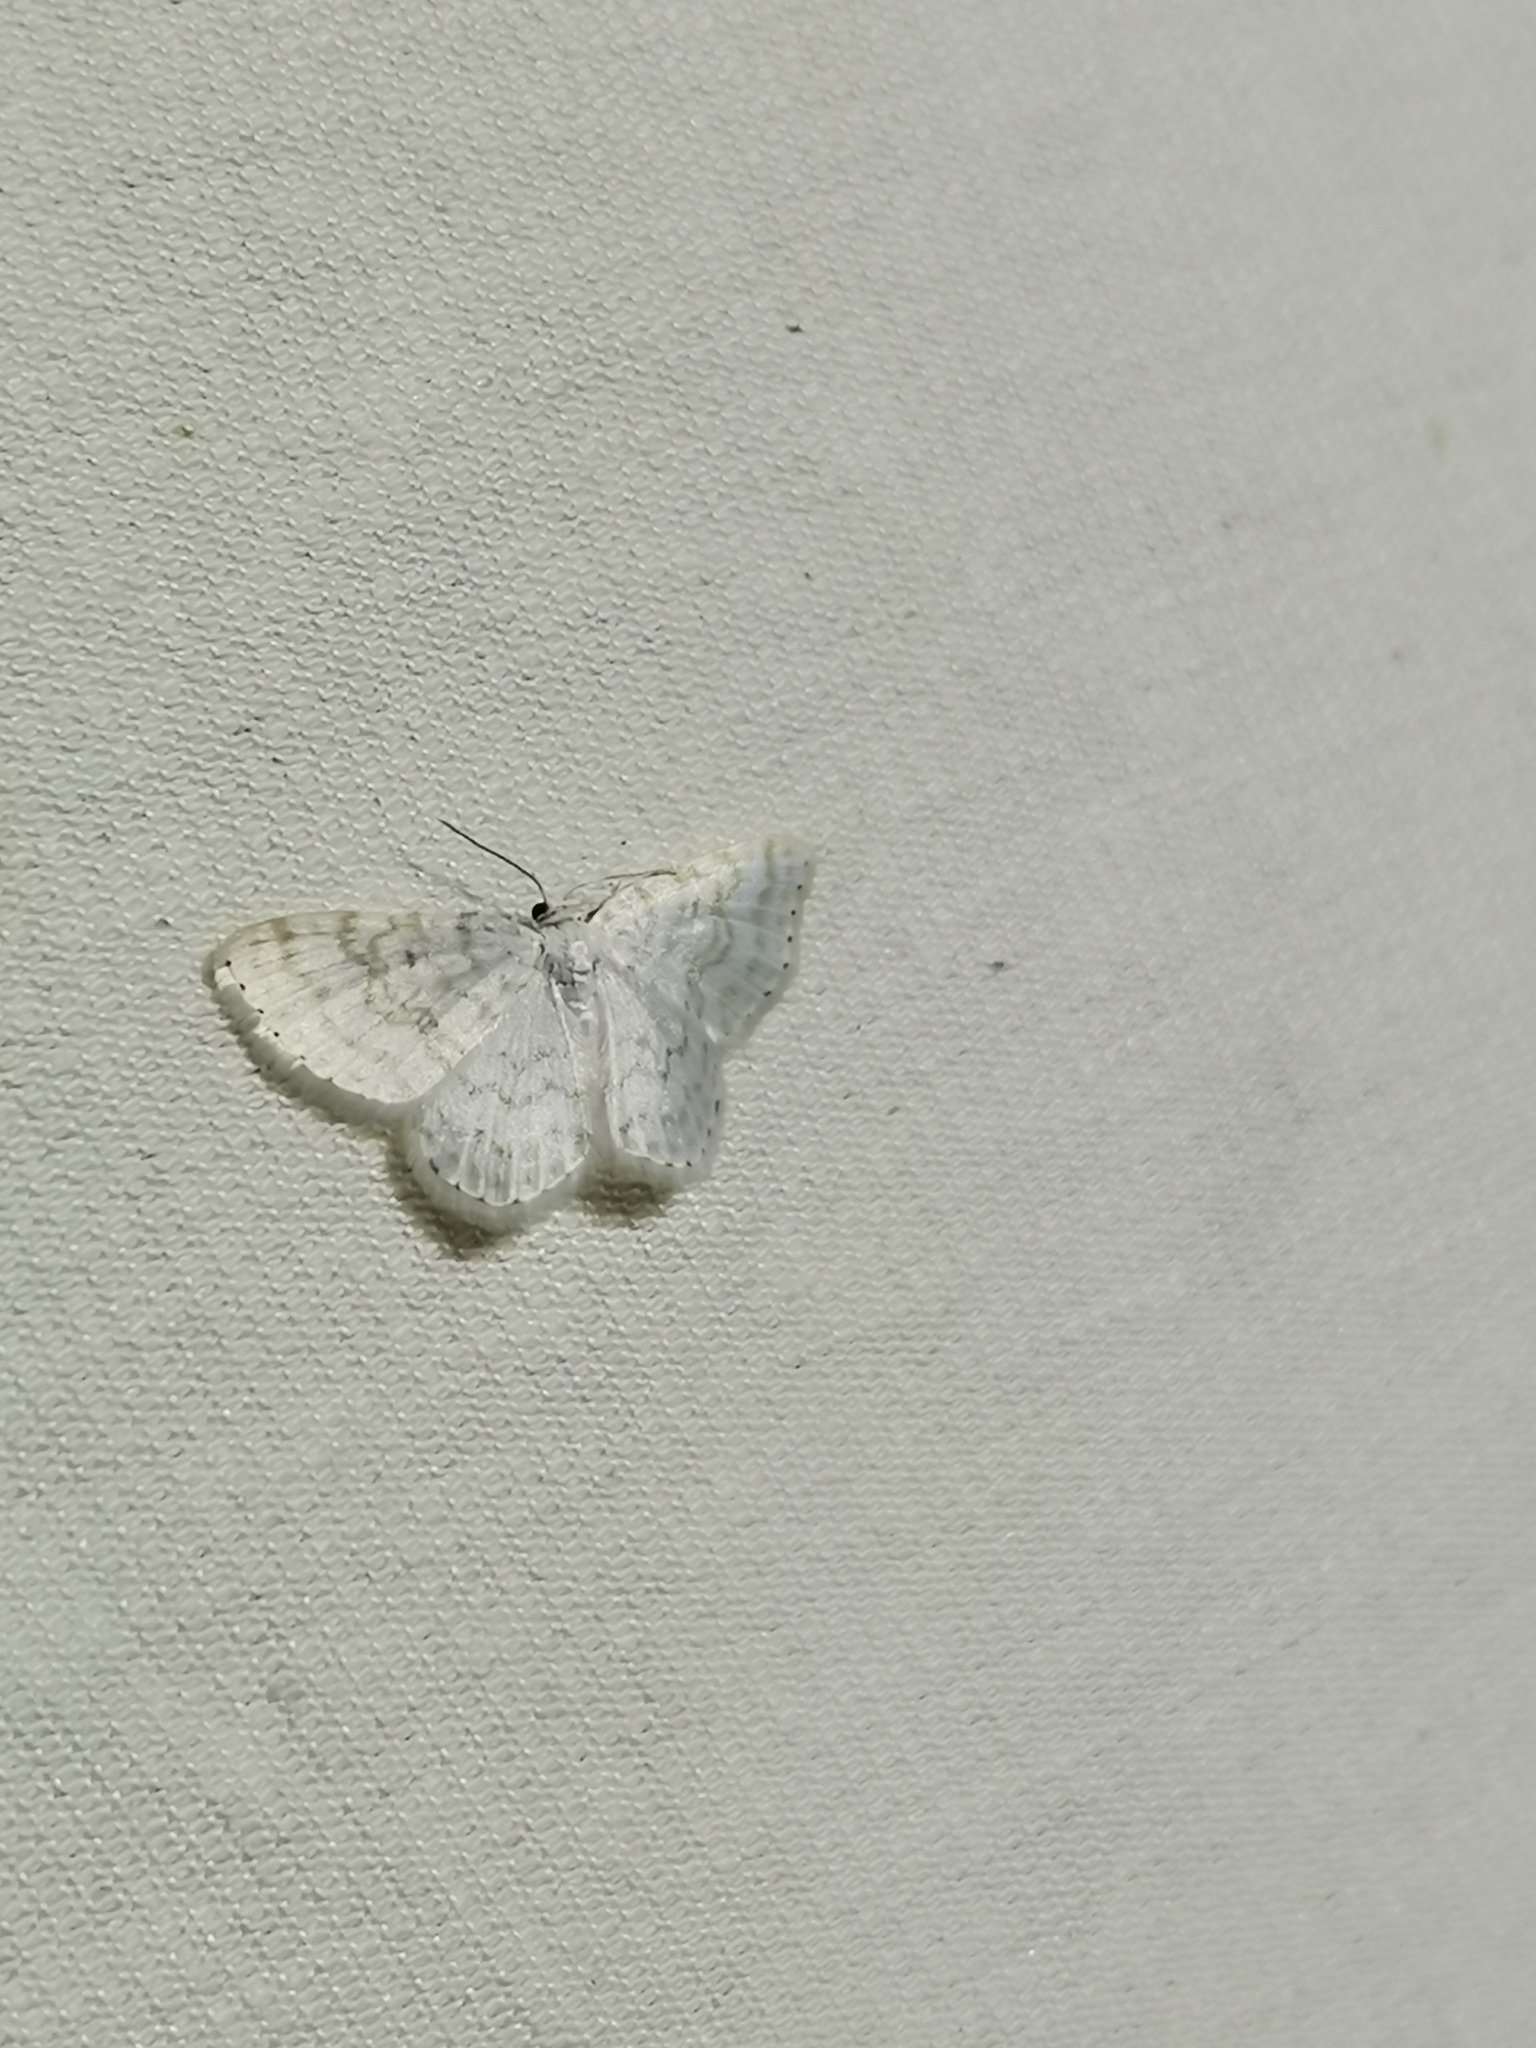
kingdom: Animalia
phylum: Arthropoda
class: Insecta
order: Lepidoptera
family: Geometridae
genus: Asthena
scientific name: Asthena albulata
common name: Small white wave
